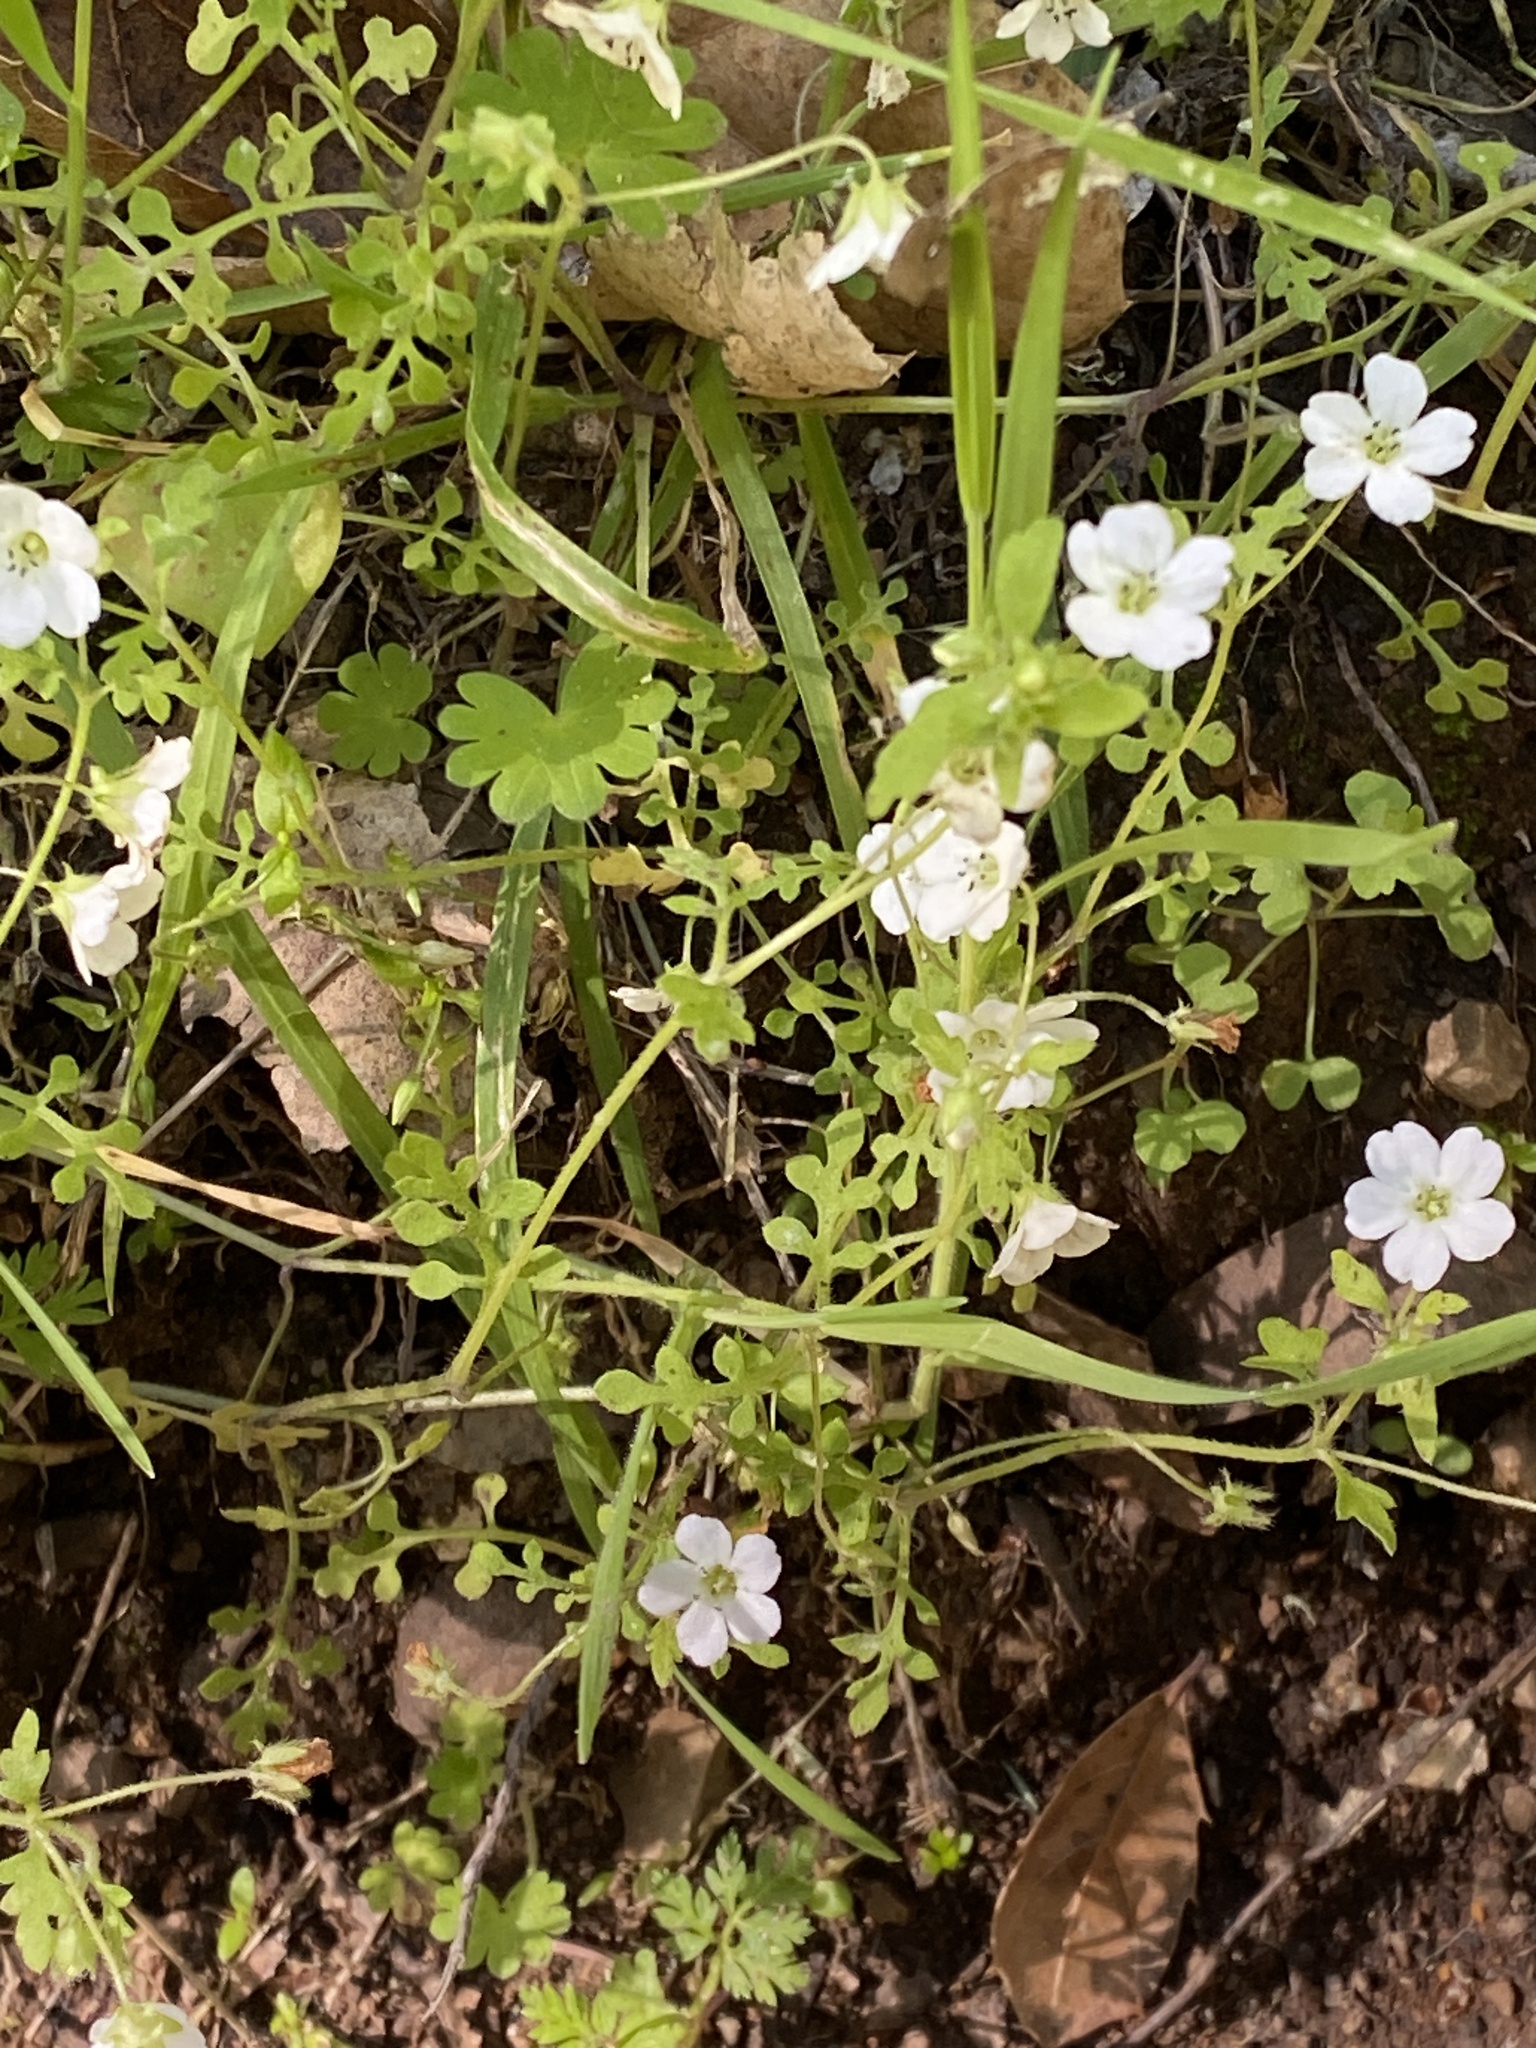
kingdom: Plantae
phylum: Tracheophyta
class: Magnoliopsida
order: Boraginales
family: Hydrophyllaceae
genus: Nemophila
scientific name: Nemophila heterophylla
